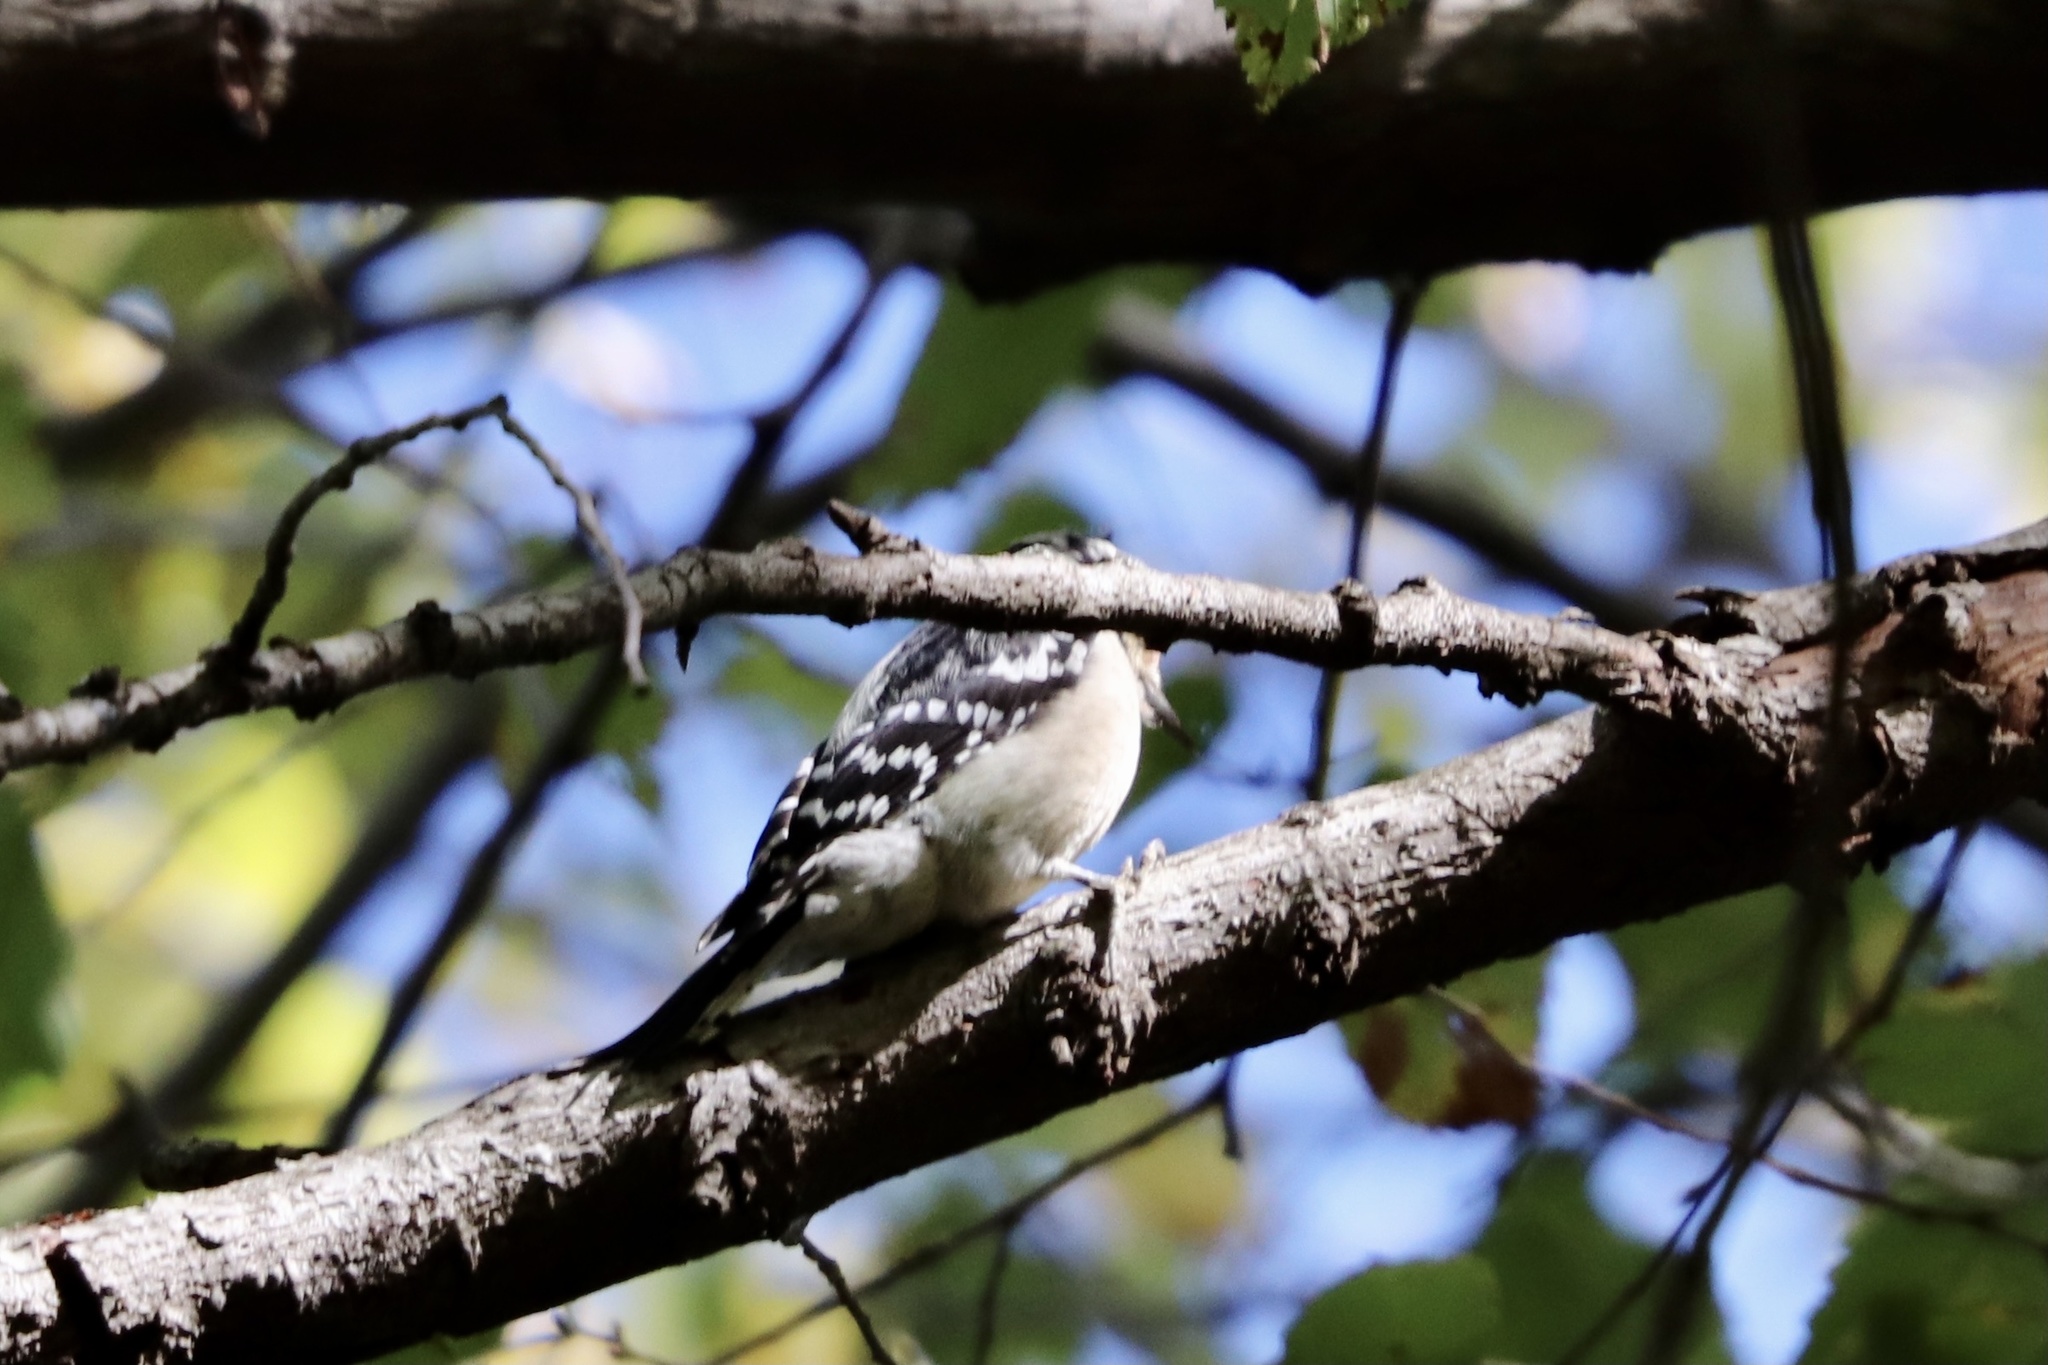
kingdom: Animalia
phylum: Chordata
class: Aves
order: Piciformes
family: Picidae
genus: Dryobates
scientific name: Dryobates pubescens
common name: Downy woodpecker
